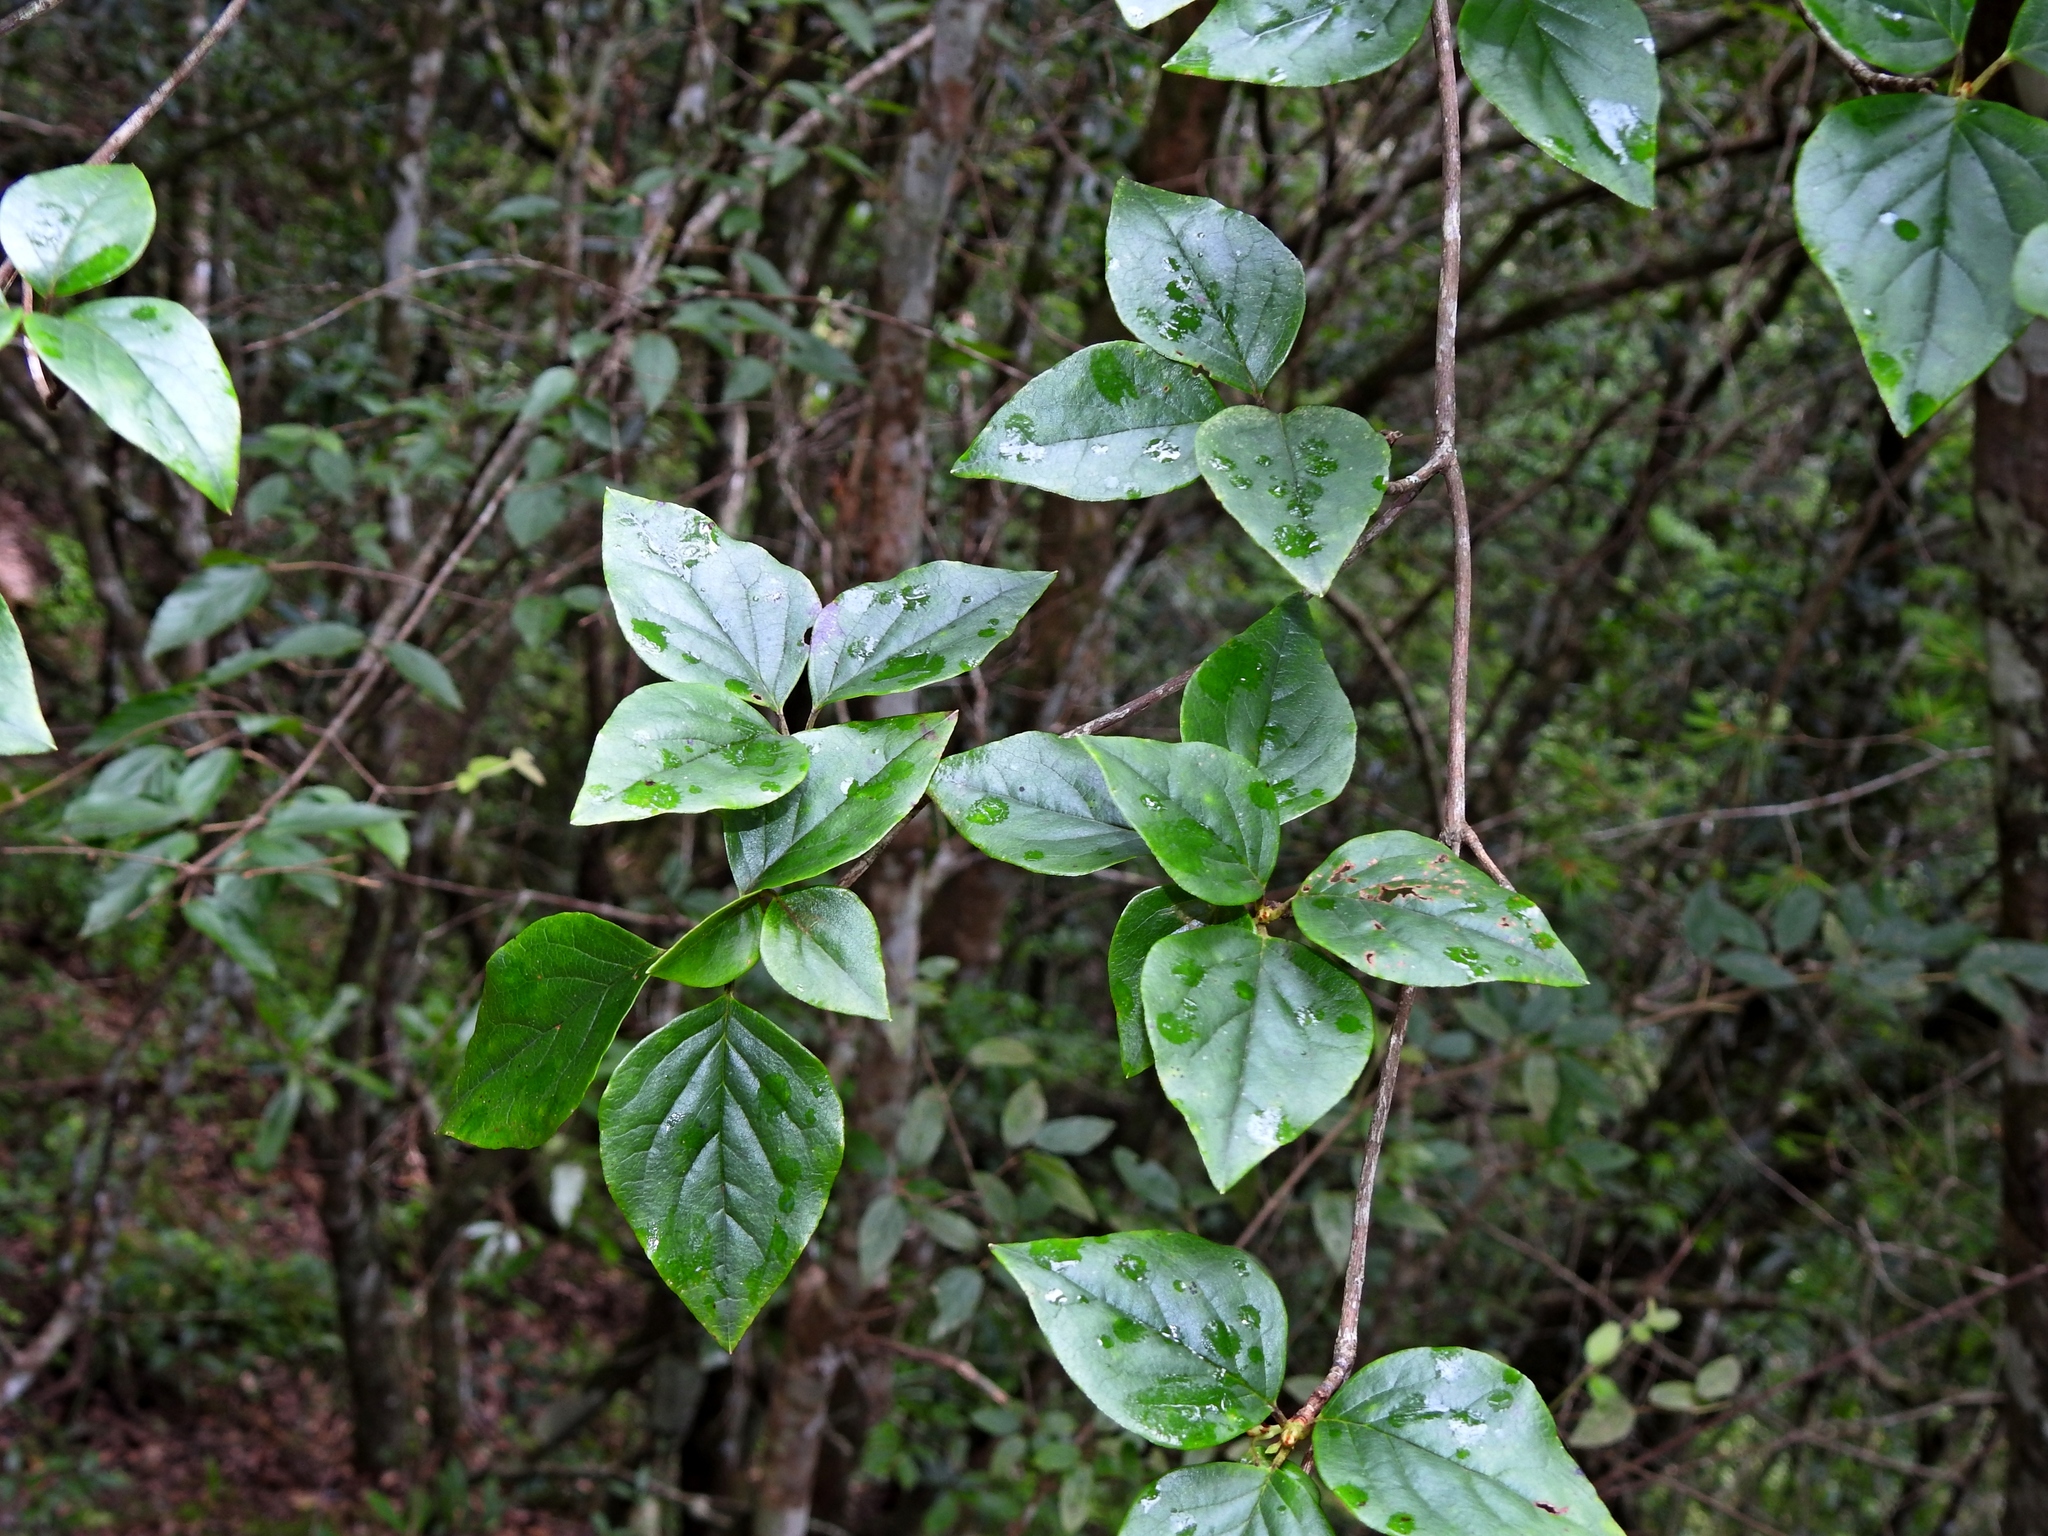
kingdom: Plantae
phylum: Tracheophyta
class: Magnoliopsida
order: Ericales
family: Ericaceae
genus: Rhododendron
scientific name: Rhododendron mariesii
